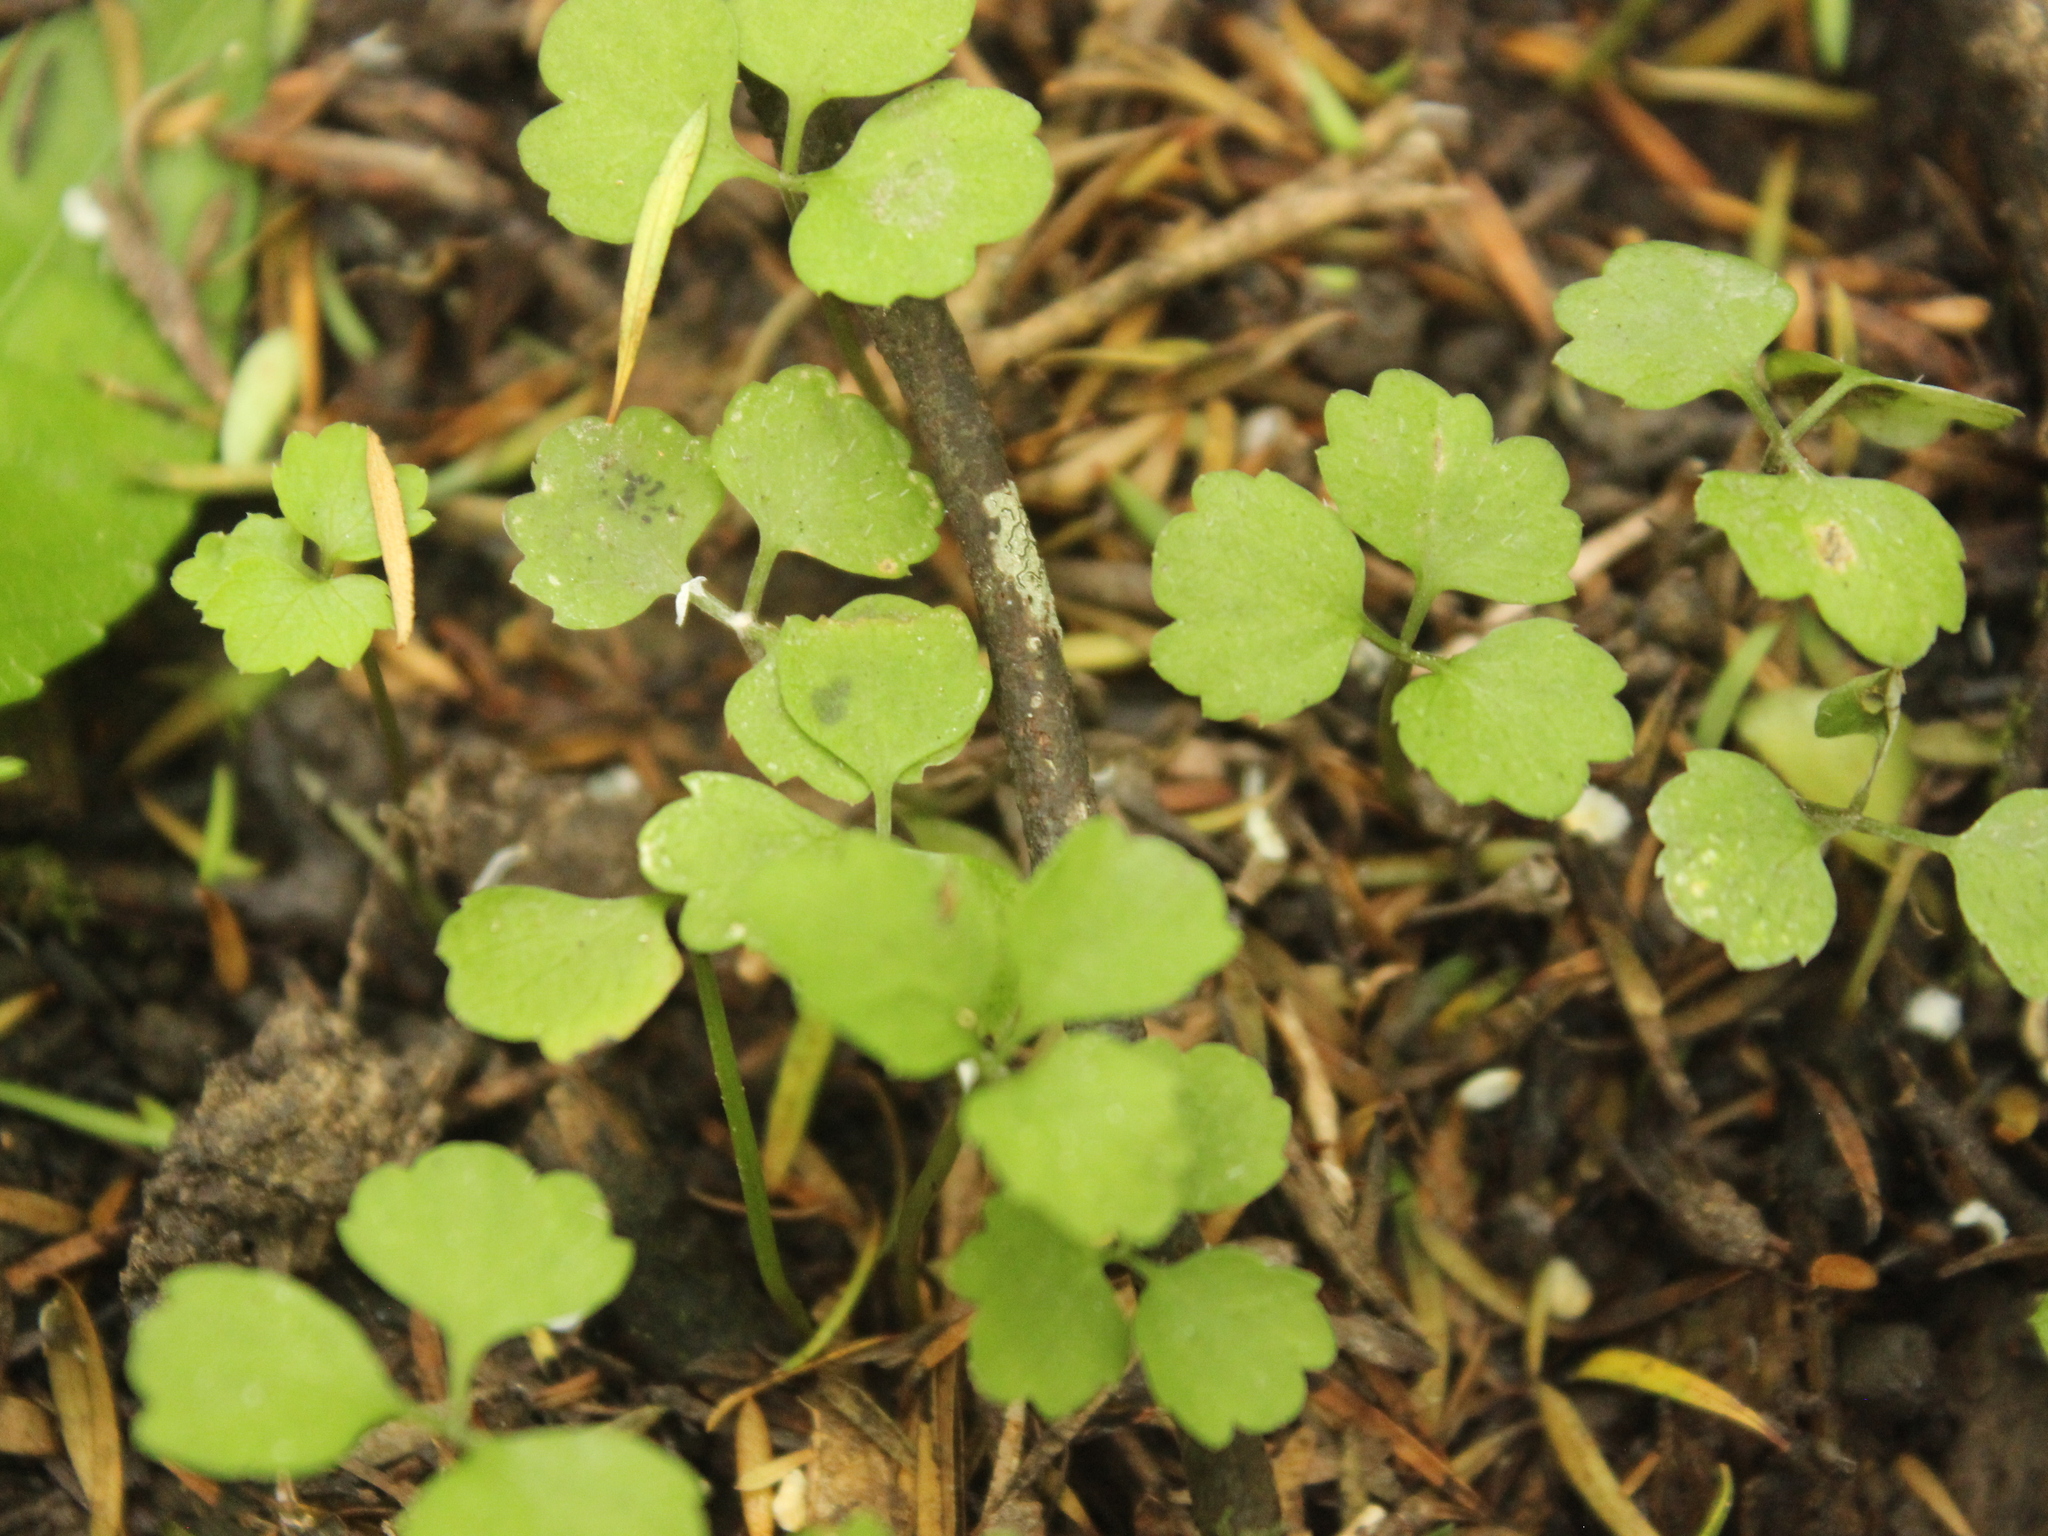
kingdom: Plantae
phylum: Tracheophyta
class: Magnoliopsida
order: Apiales
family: Apiaceae
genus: Azorella
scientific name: Azorella hookeri
